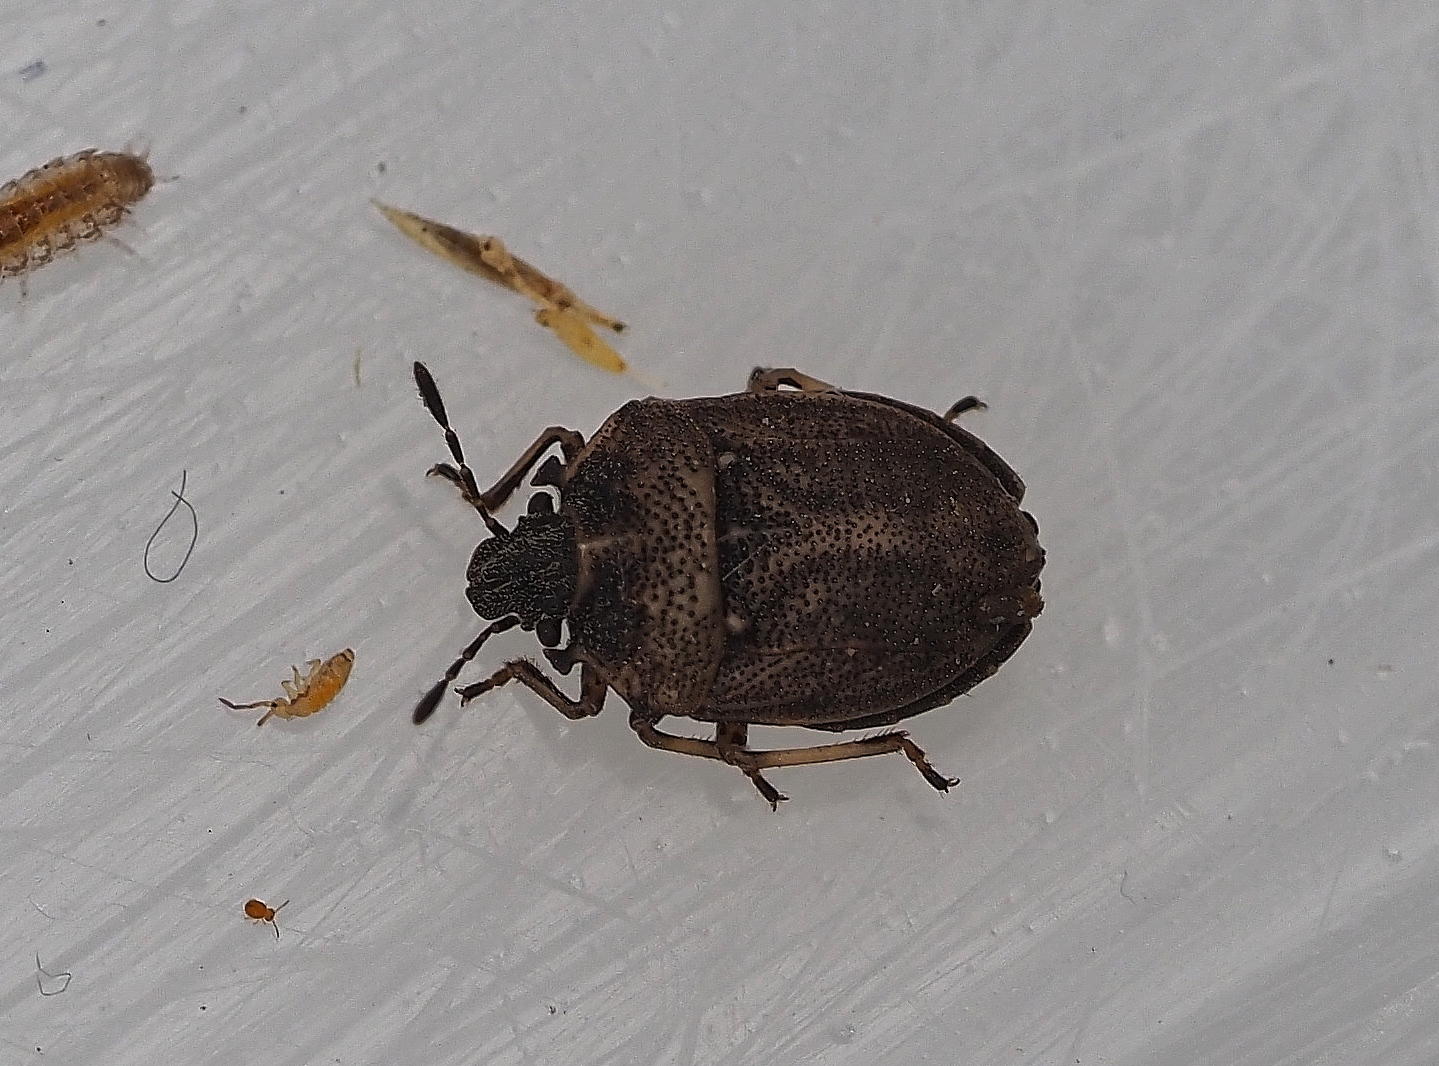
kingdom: Animalia
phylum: Arthropoda
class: Insecta
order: Hemiptera
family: Pentatomidae
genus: Podops
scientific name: Podops inunctus
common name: Turtle bug
